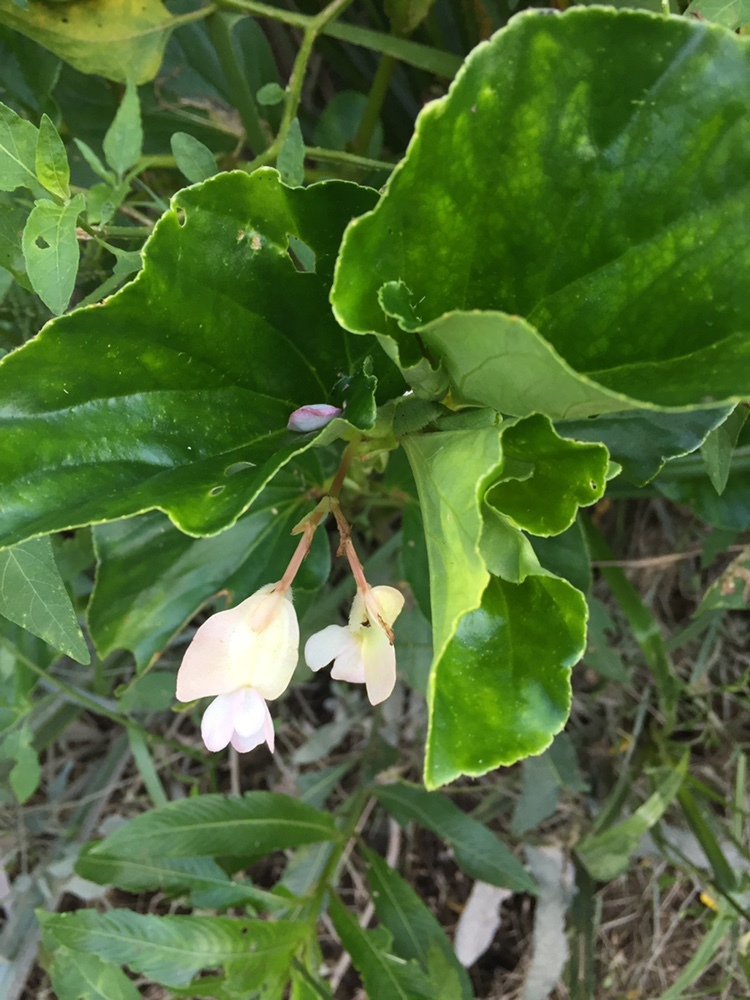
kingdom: Plantae
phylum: Tracheophyta
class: Magnoliopsida
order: Cucurbitales
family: Begoniaceae
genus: Begonia
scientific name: Begonia cucullata
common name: Clubbed begonia
